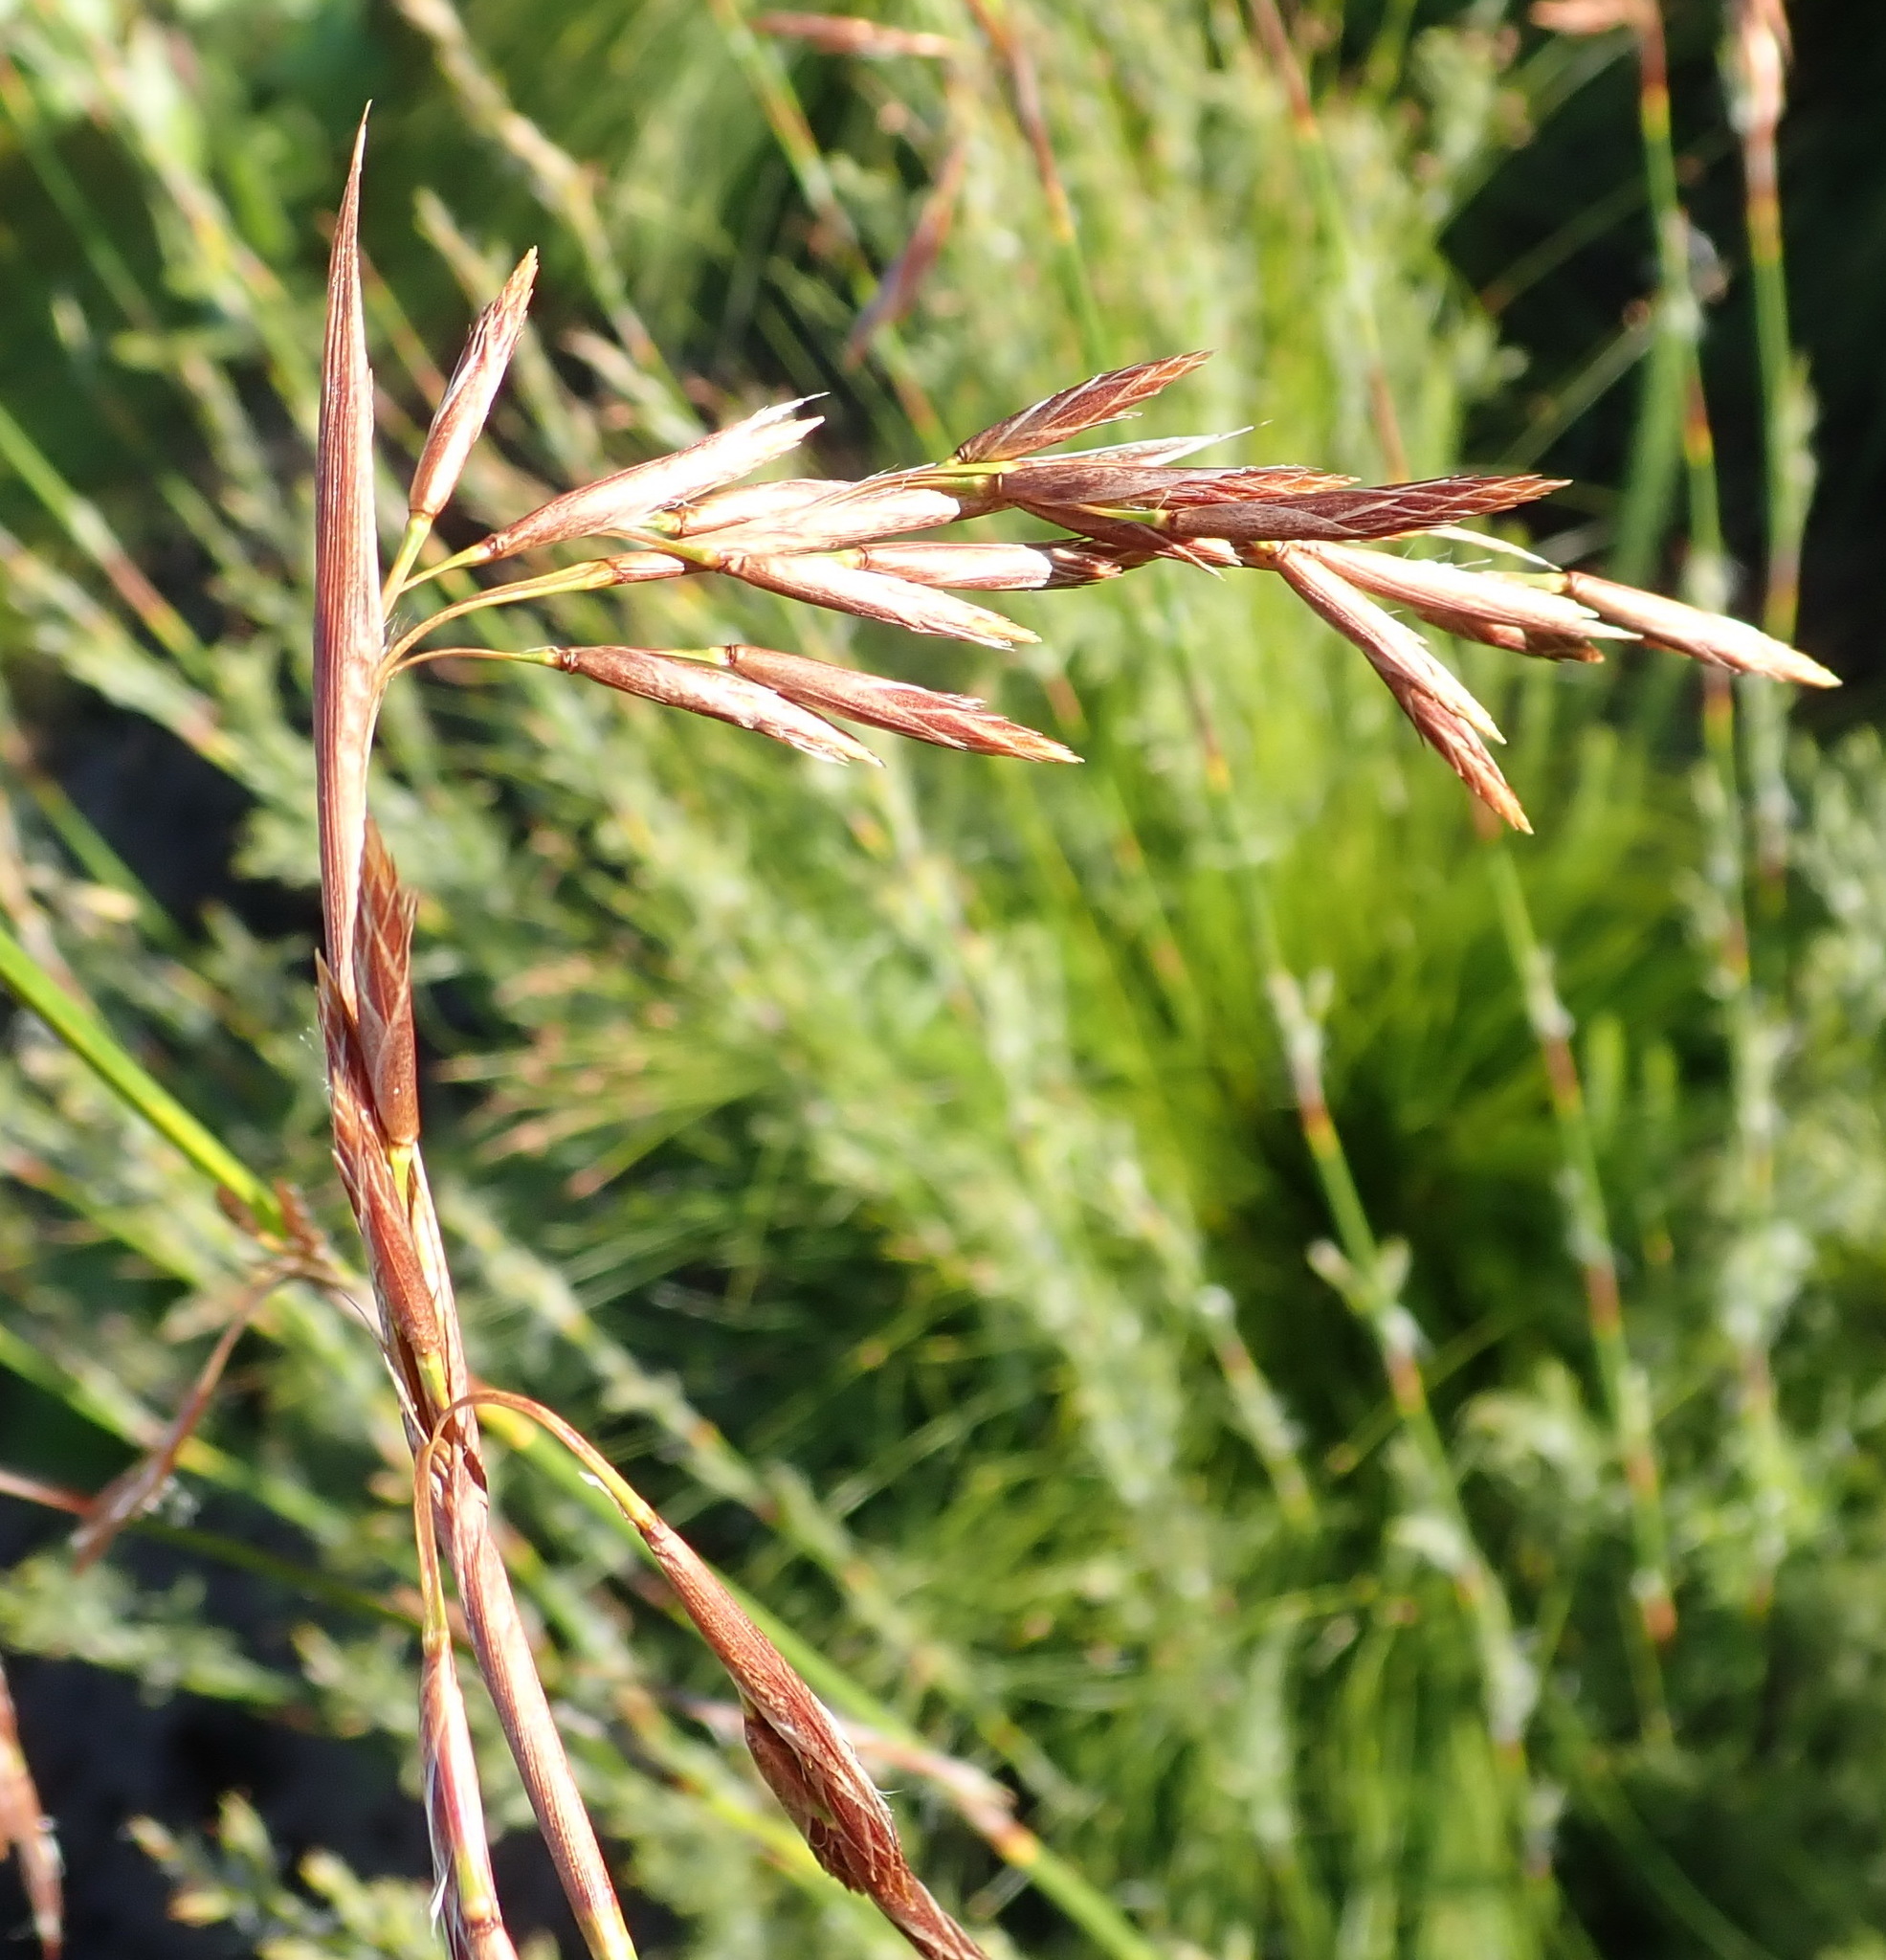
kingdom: Plantae
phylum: Tracheophyta
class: Liliopsida
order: Poales
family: Restionaceae
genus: Thamnochortus
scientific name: Thamnochortus glaber
